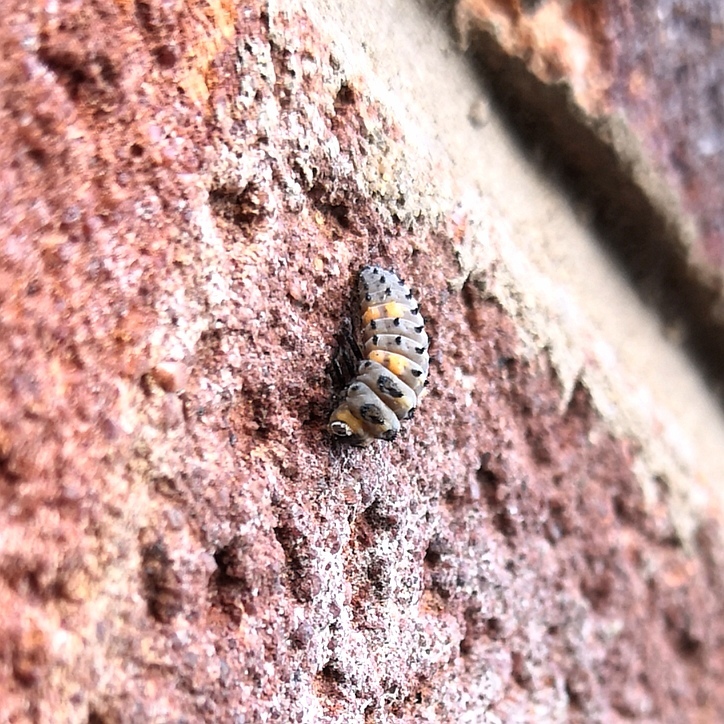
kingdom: Animalia
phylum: Arthropoda
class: Insecta
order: Coleoptera
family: Coccinellidae
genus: Coccinella
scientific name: Coccinella septempunctata
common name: Sevenspotted lady beetle
